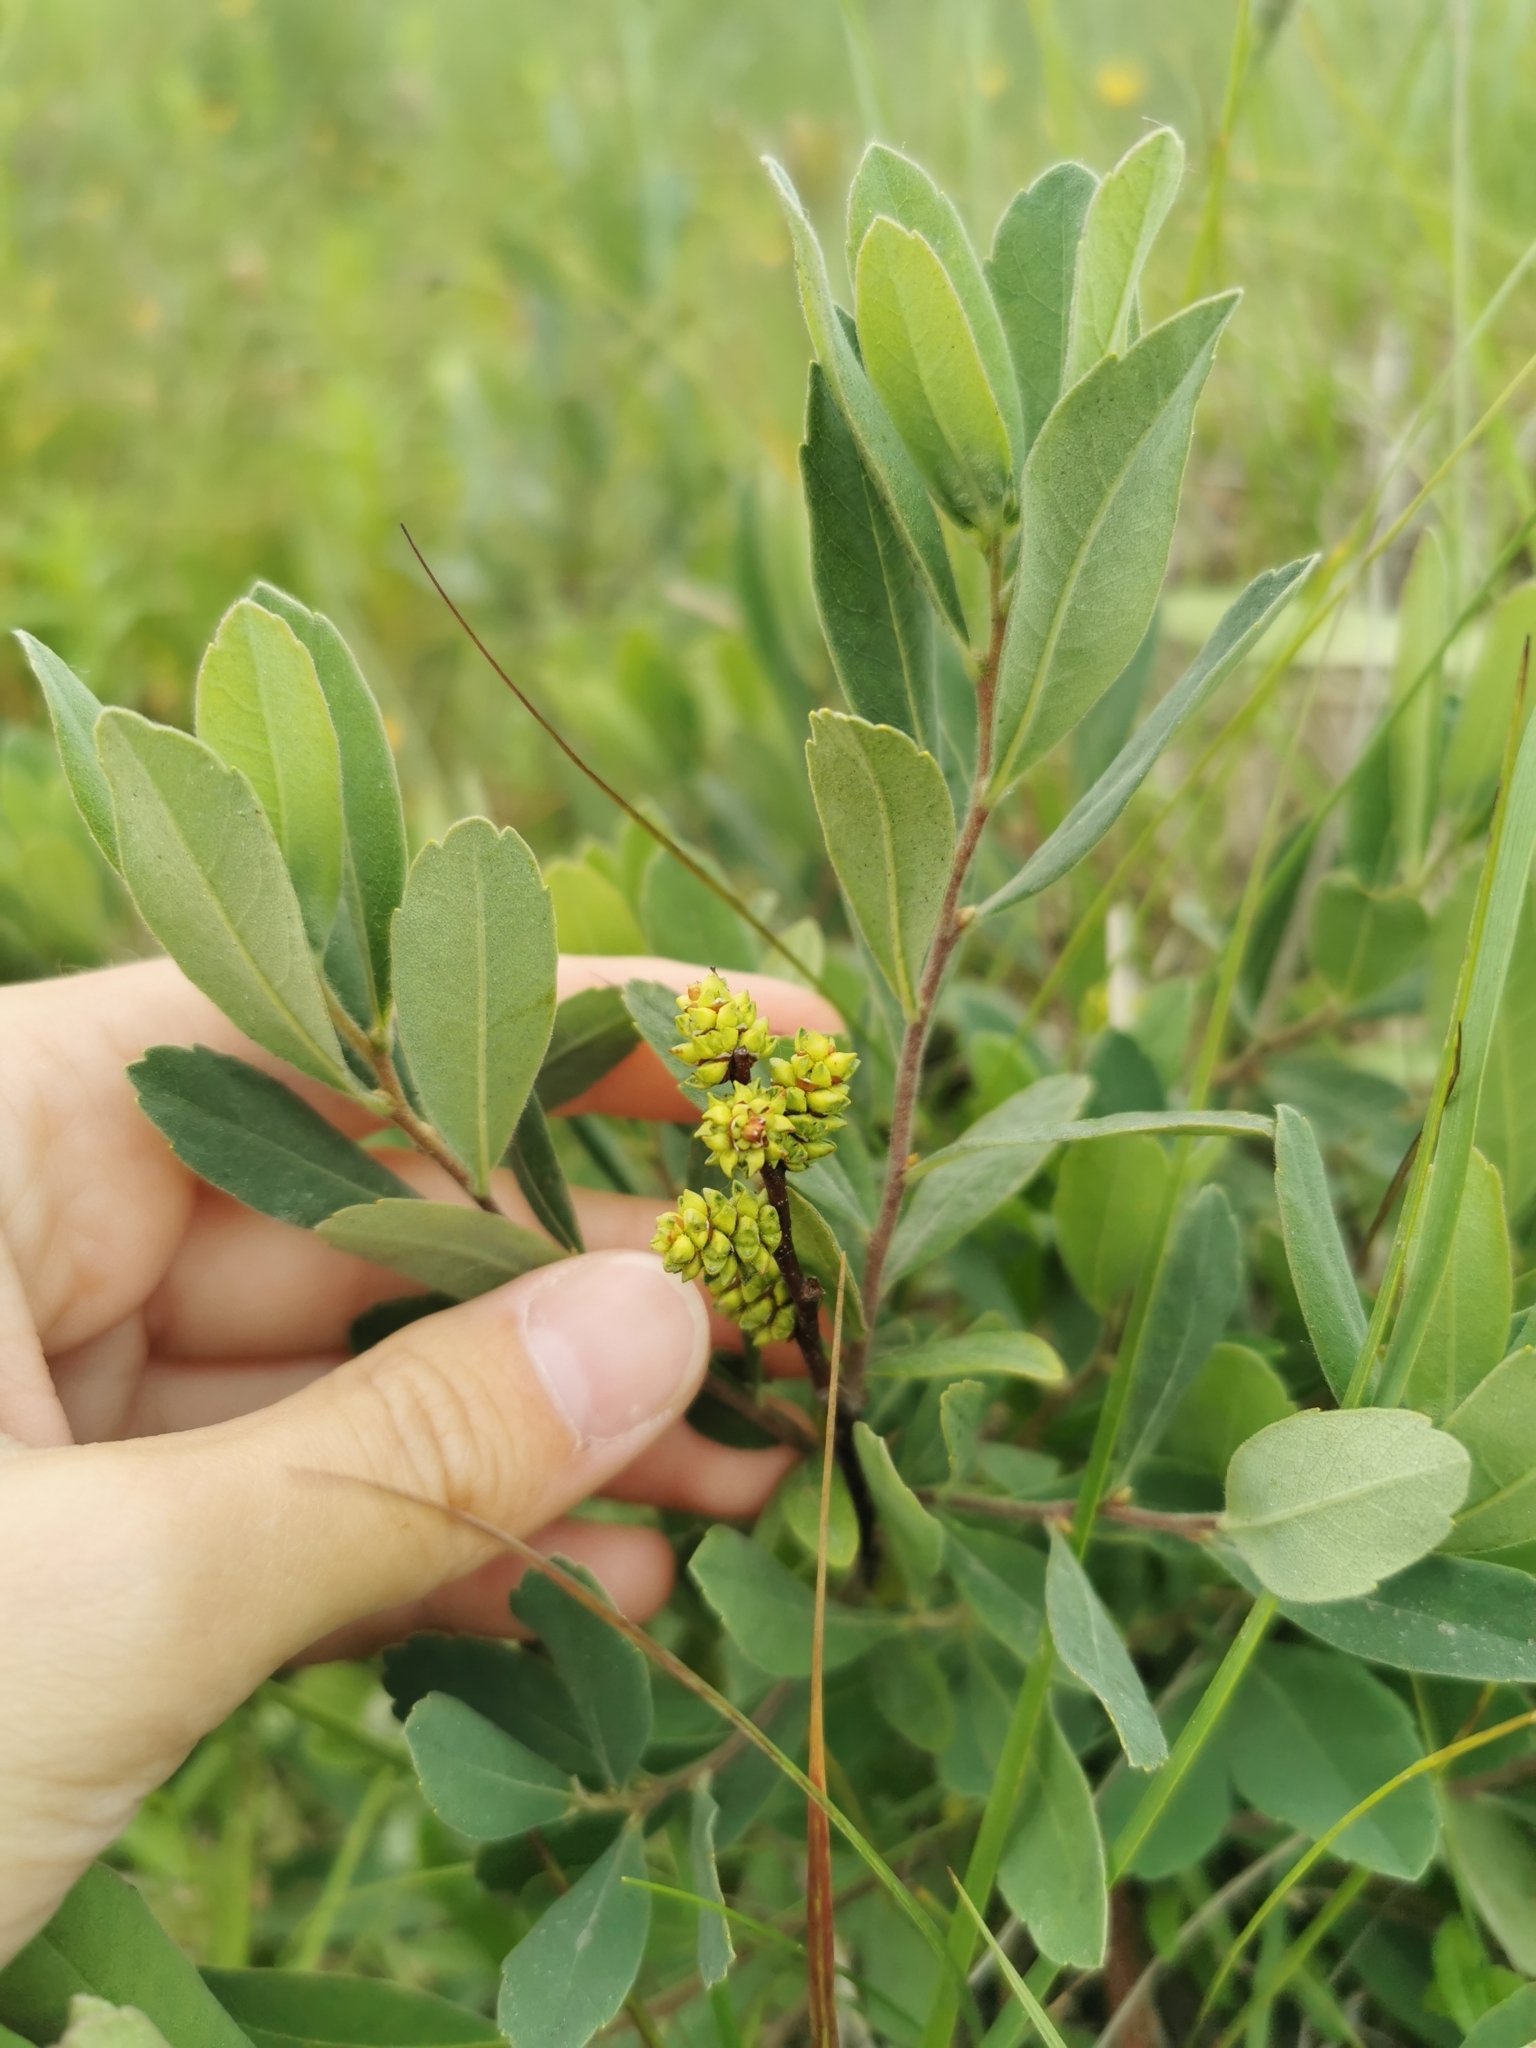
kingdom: Plantae
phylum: Tracheophyta
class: Magnoliopsida
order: Fagales
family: Myricaceae
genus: Myrica
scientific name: Myrica gale
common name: Sweet gale
